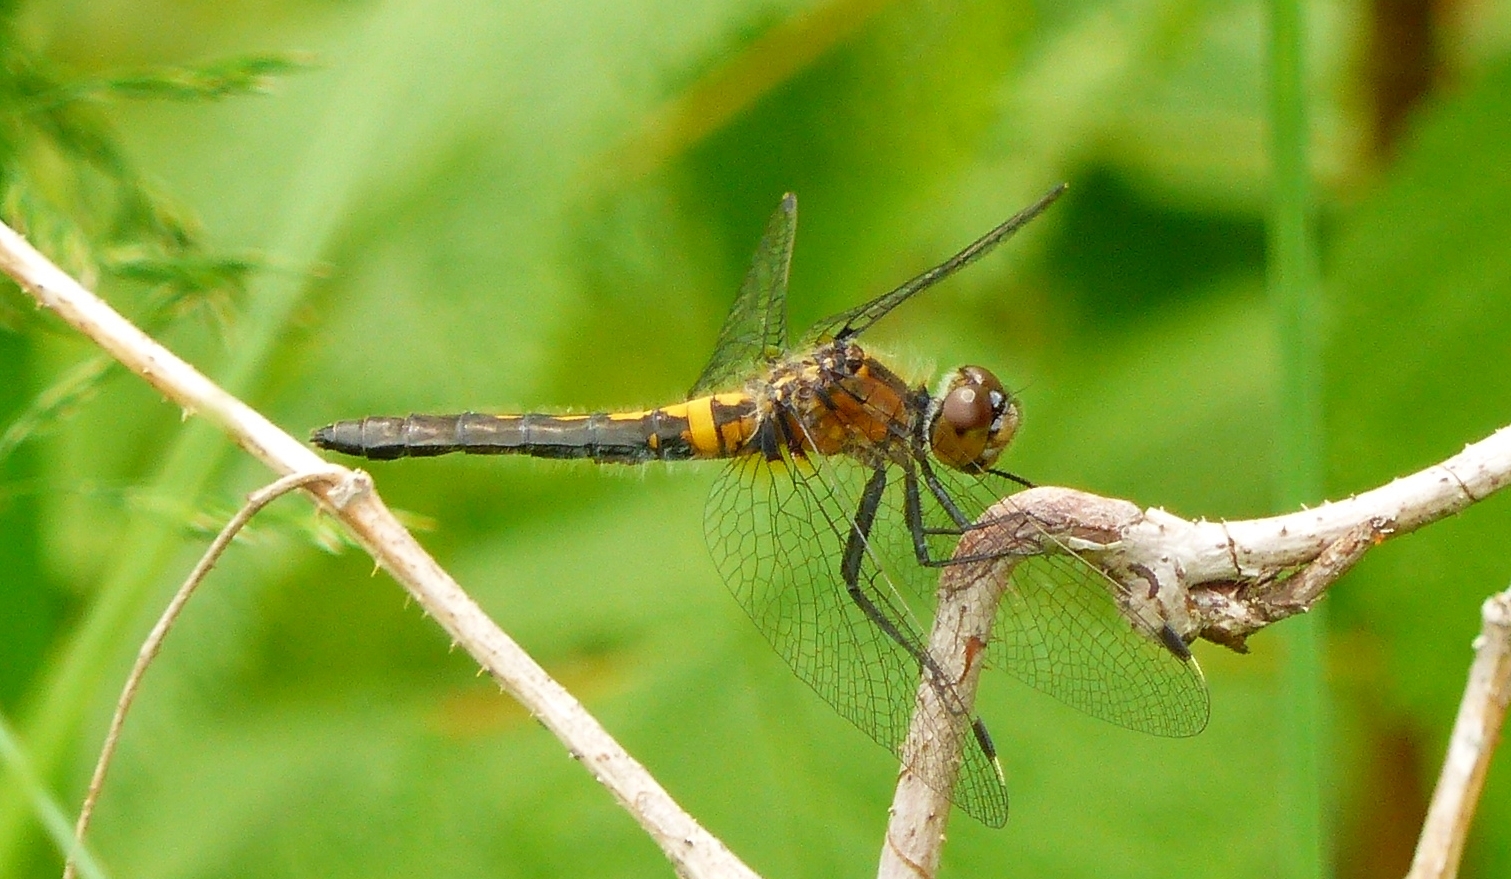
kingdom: Animalia
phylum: Arthropoda
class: Insecta
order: Odonata
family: Libellulidae
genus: Leucorrhinia
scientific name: Leucorrhinia frigida
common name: Frosted whiteface
